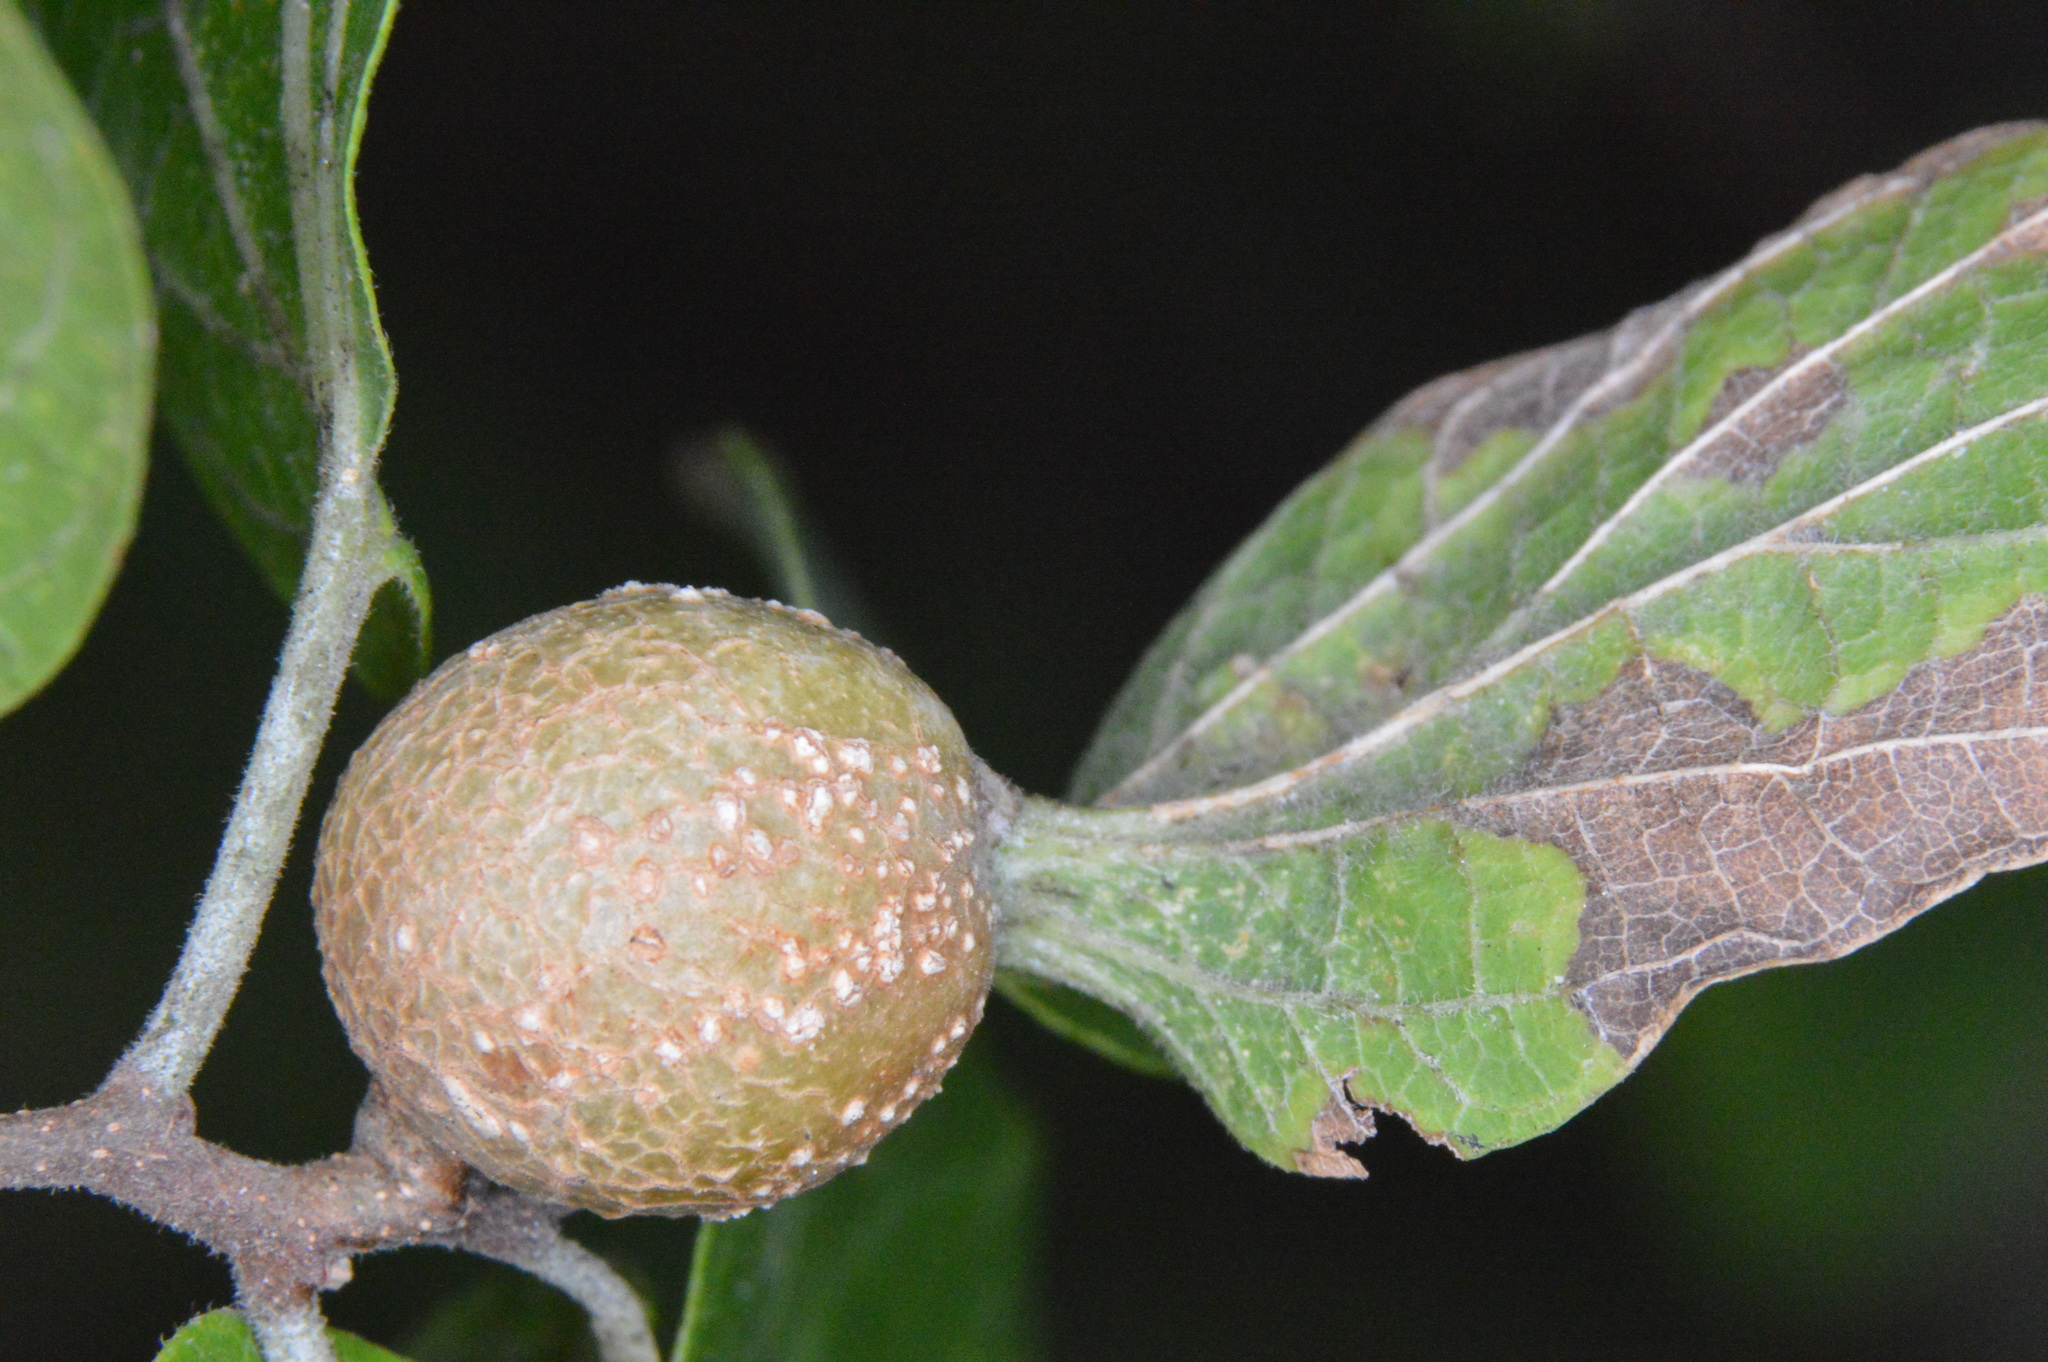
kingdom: Animalia
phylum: Arthropoda
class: Insecta
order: Hemiptera
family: Aphalaridae
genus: Pachypsylla
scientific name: Pachypsylla venusta
